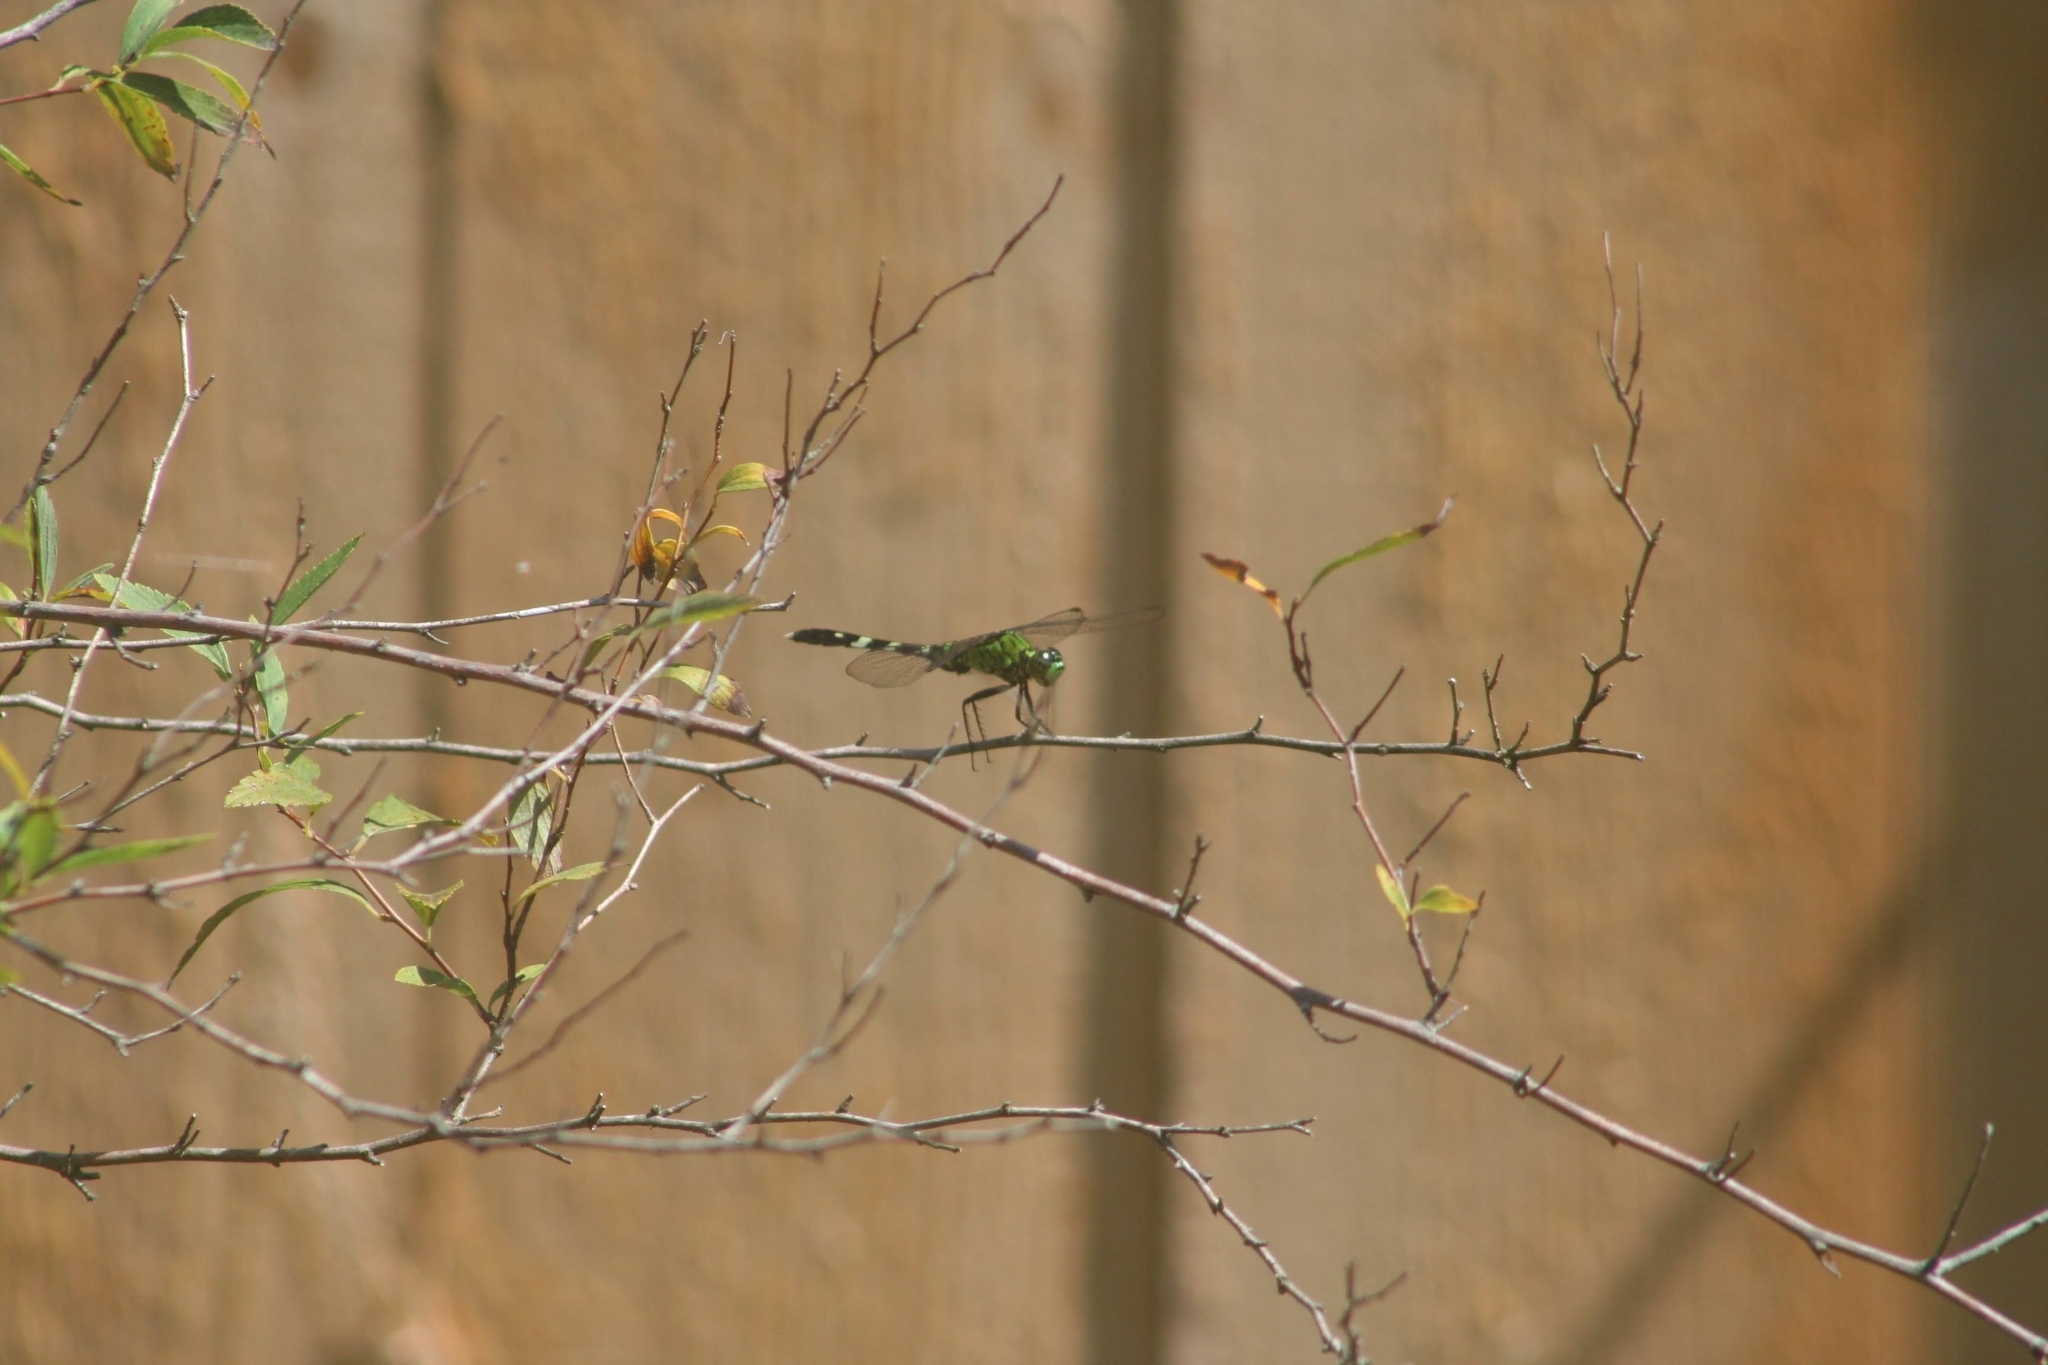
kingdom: Animalia
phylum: Arthropoda
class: Insecta
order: Odonata
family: Libellulidae
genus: Erythemis
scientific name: Erythemis simplicicollis
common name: Eastern pondhawk
